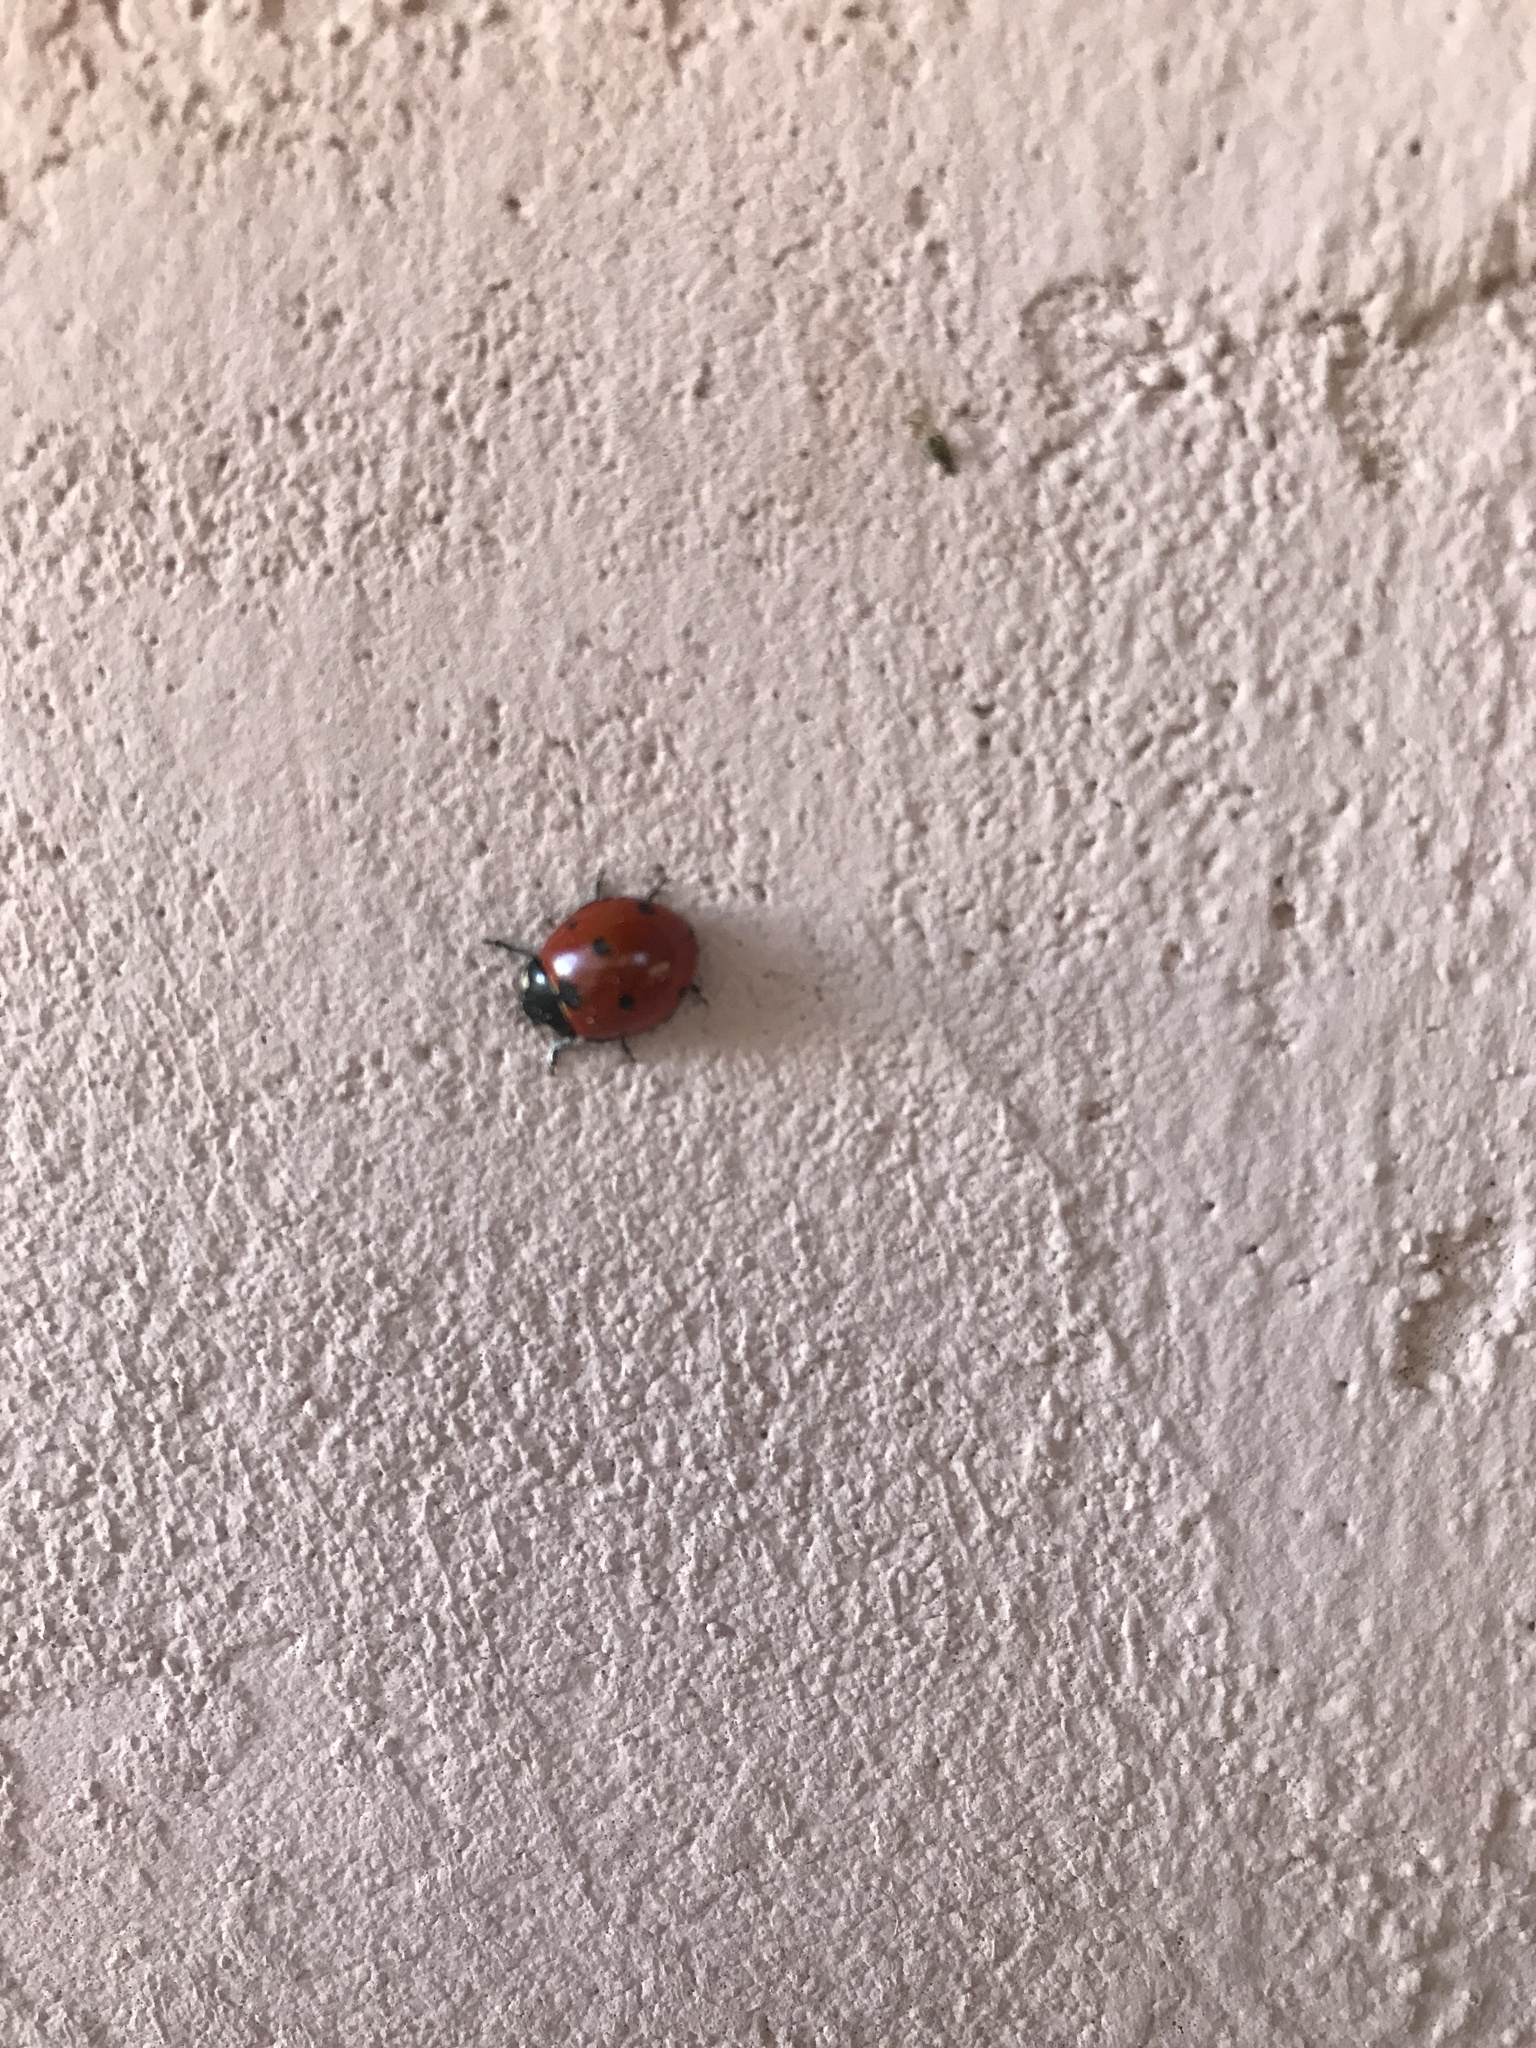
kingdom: Animalia
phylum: Arthropoda
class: Insecta
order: Coleoptera
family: Coccinellidae
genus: Coccinella
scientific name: Coccinella septempunctata
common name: Sevenspotted lady beetle
